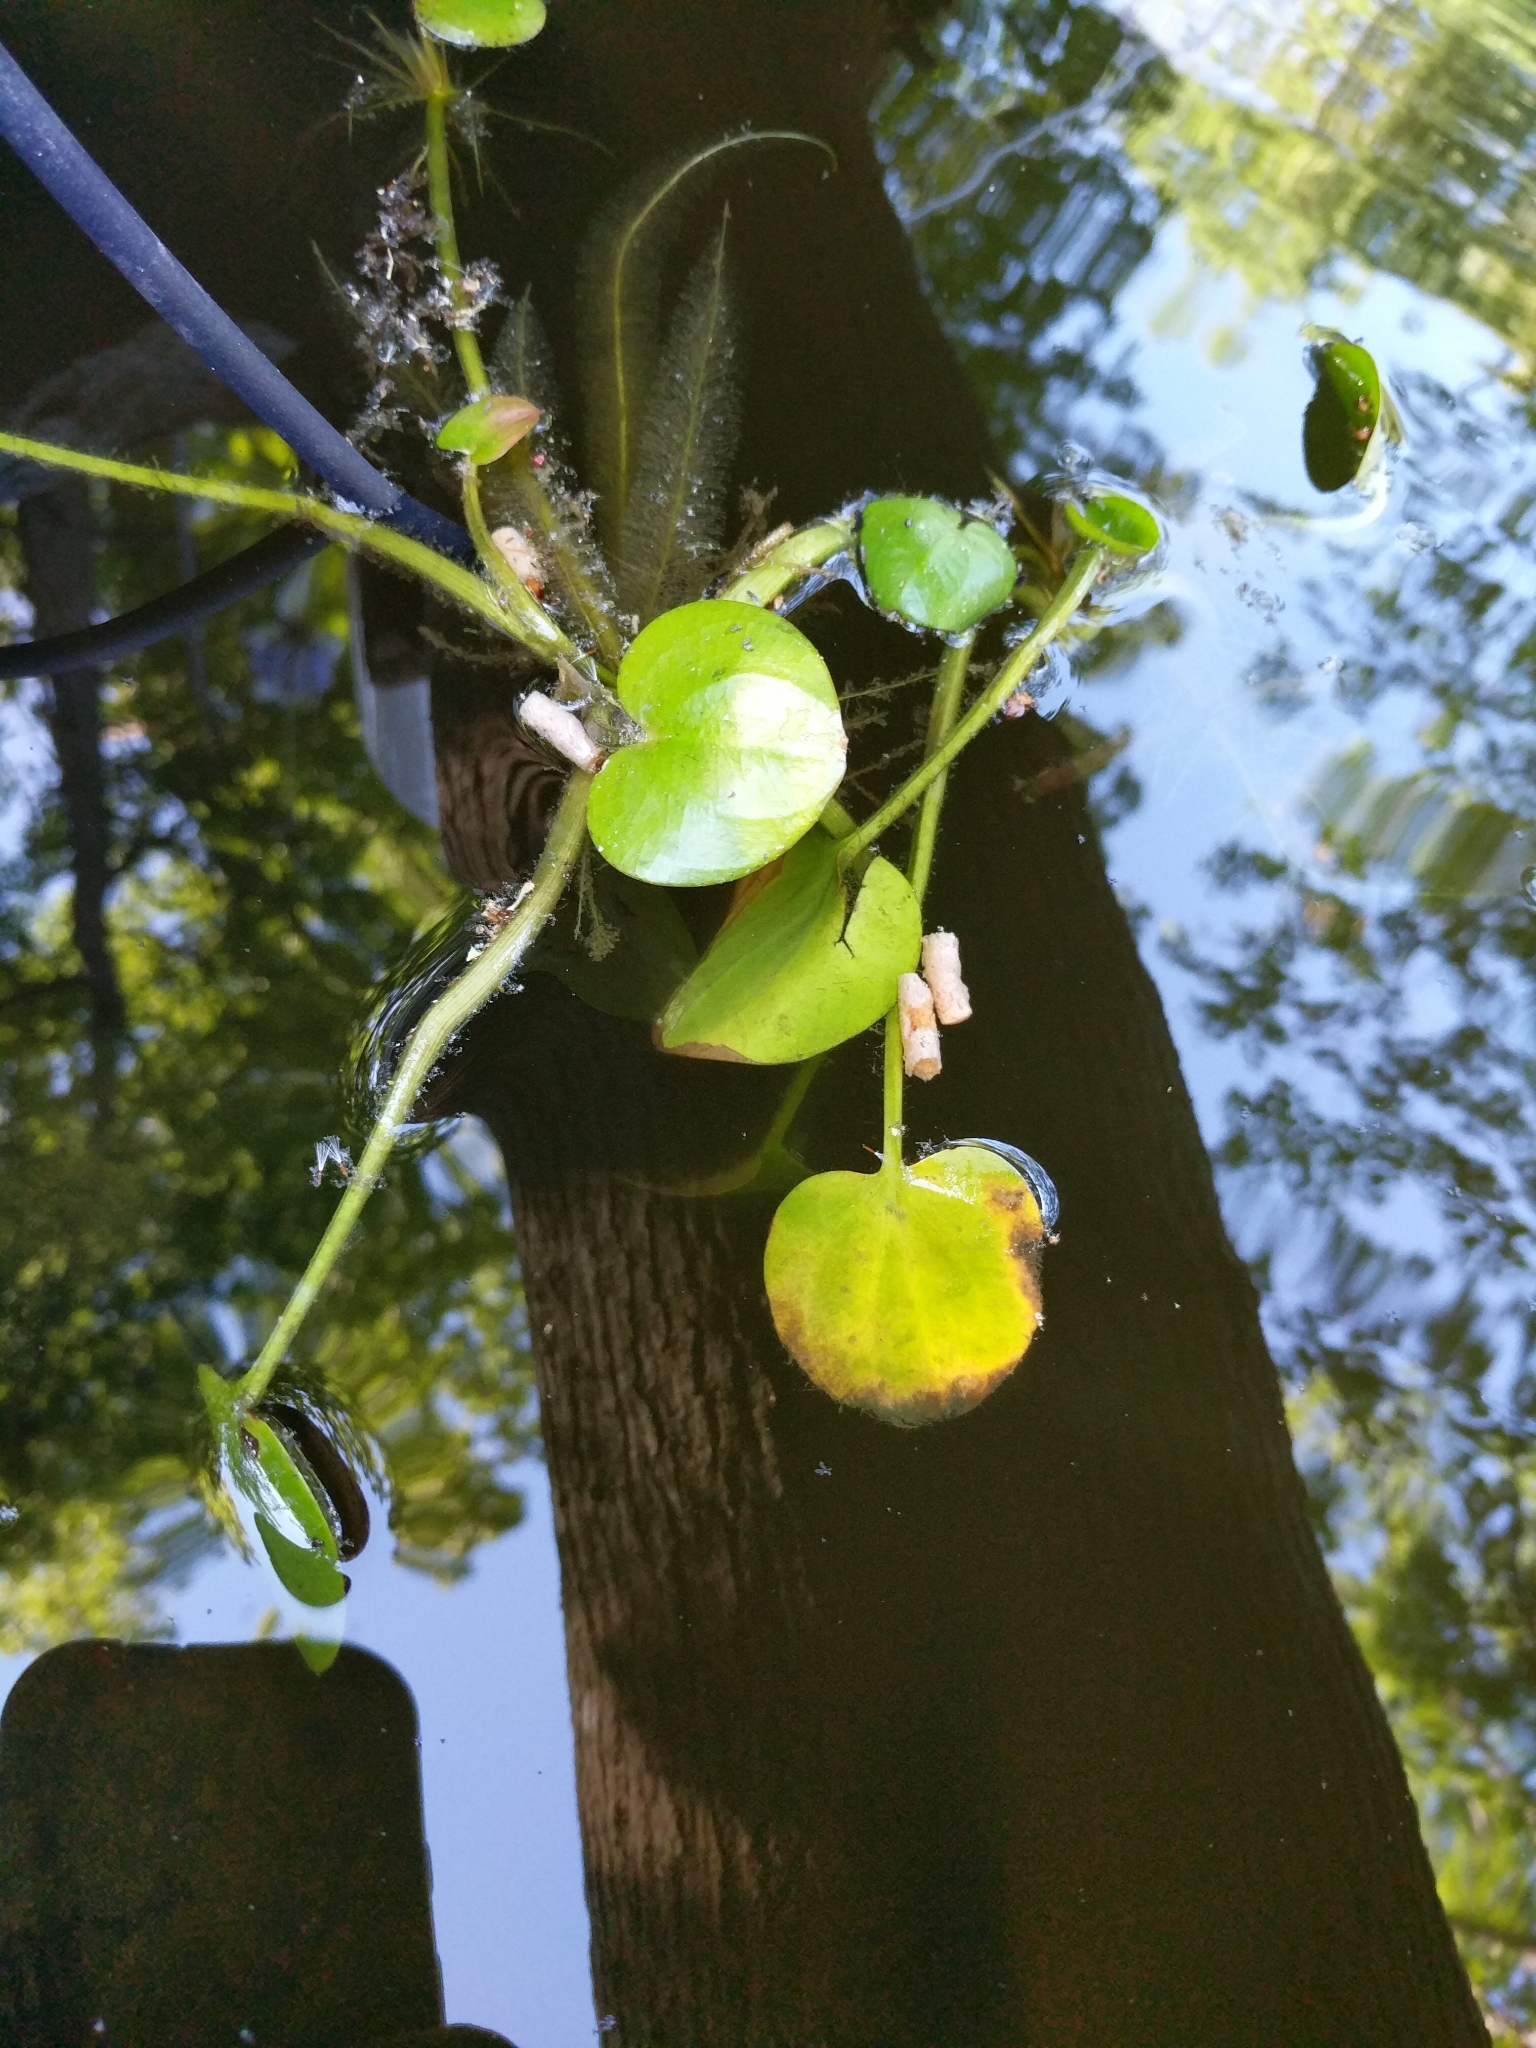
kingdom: Plantae
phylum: Tracheophyta
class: Liliopsida
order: Alismatales
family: Hydrocharitaceae
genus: Hydrocharis
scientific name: Hydrocharis spongia
